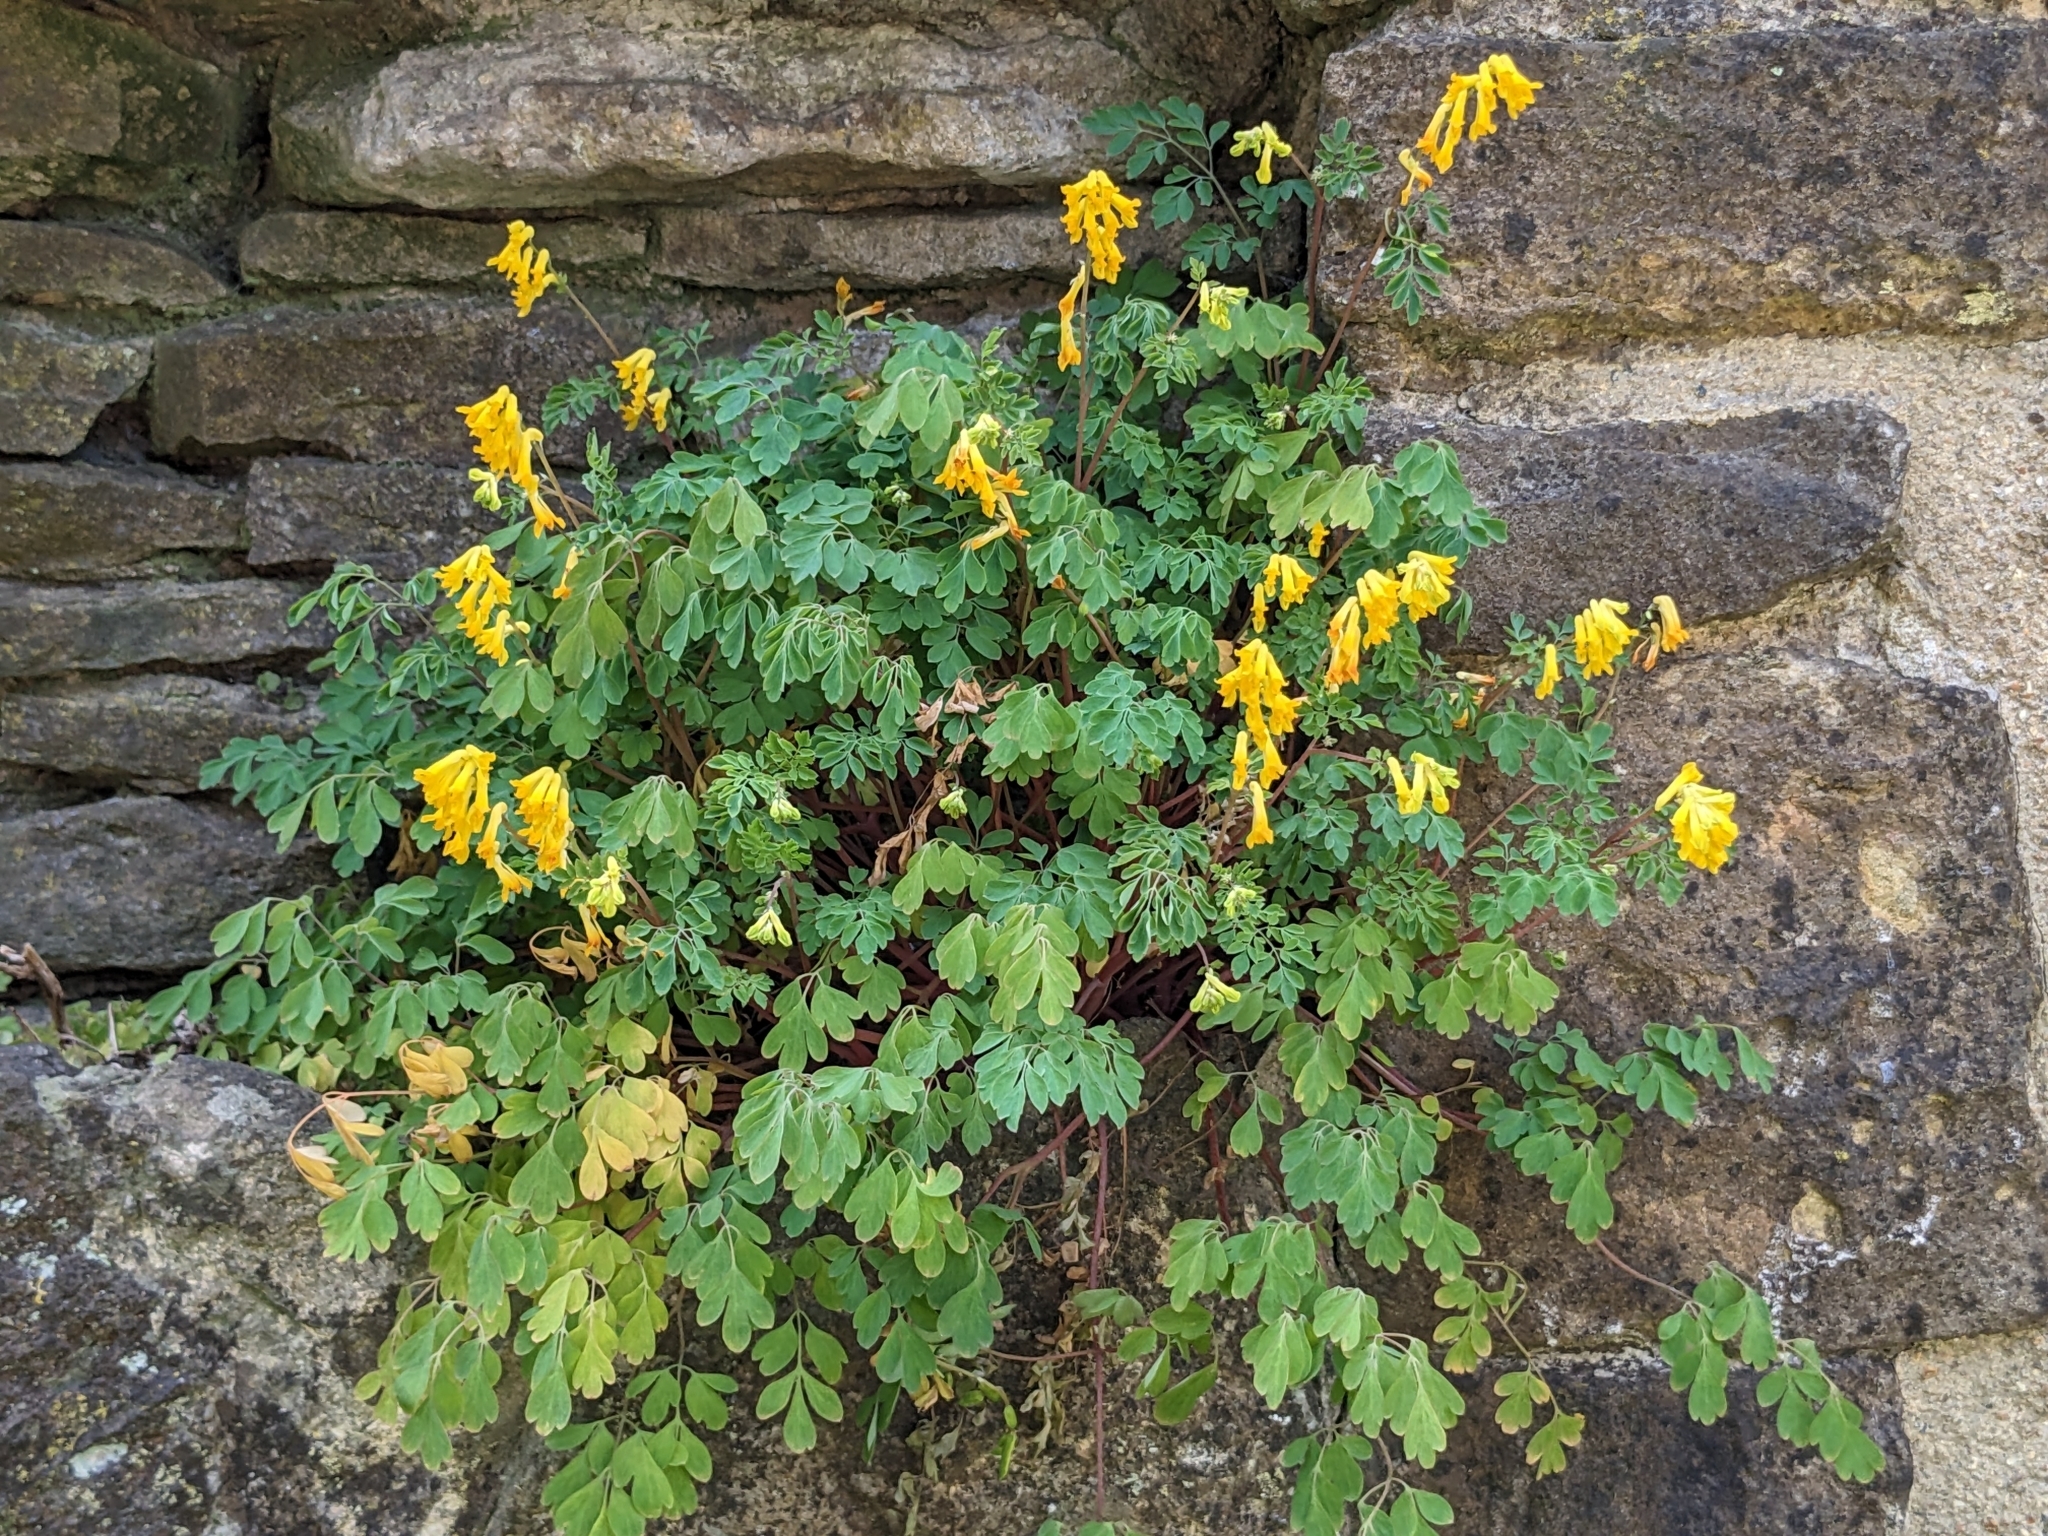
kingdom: Plantae
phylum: Tracheophyta
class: Magnoliopsida
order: Ranunculales
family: Papaveraceae
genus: Pseudofumaria
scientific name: Pseudofumaria lutea
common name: Yellow corydalis
